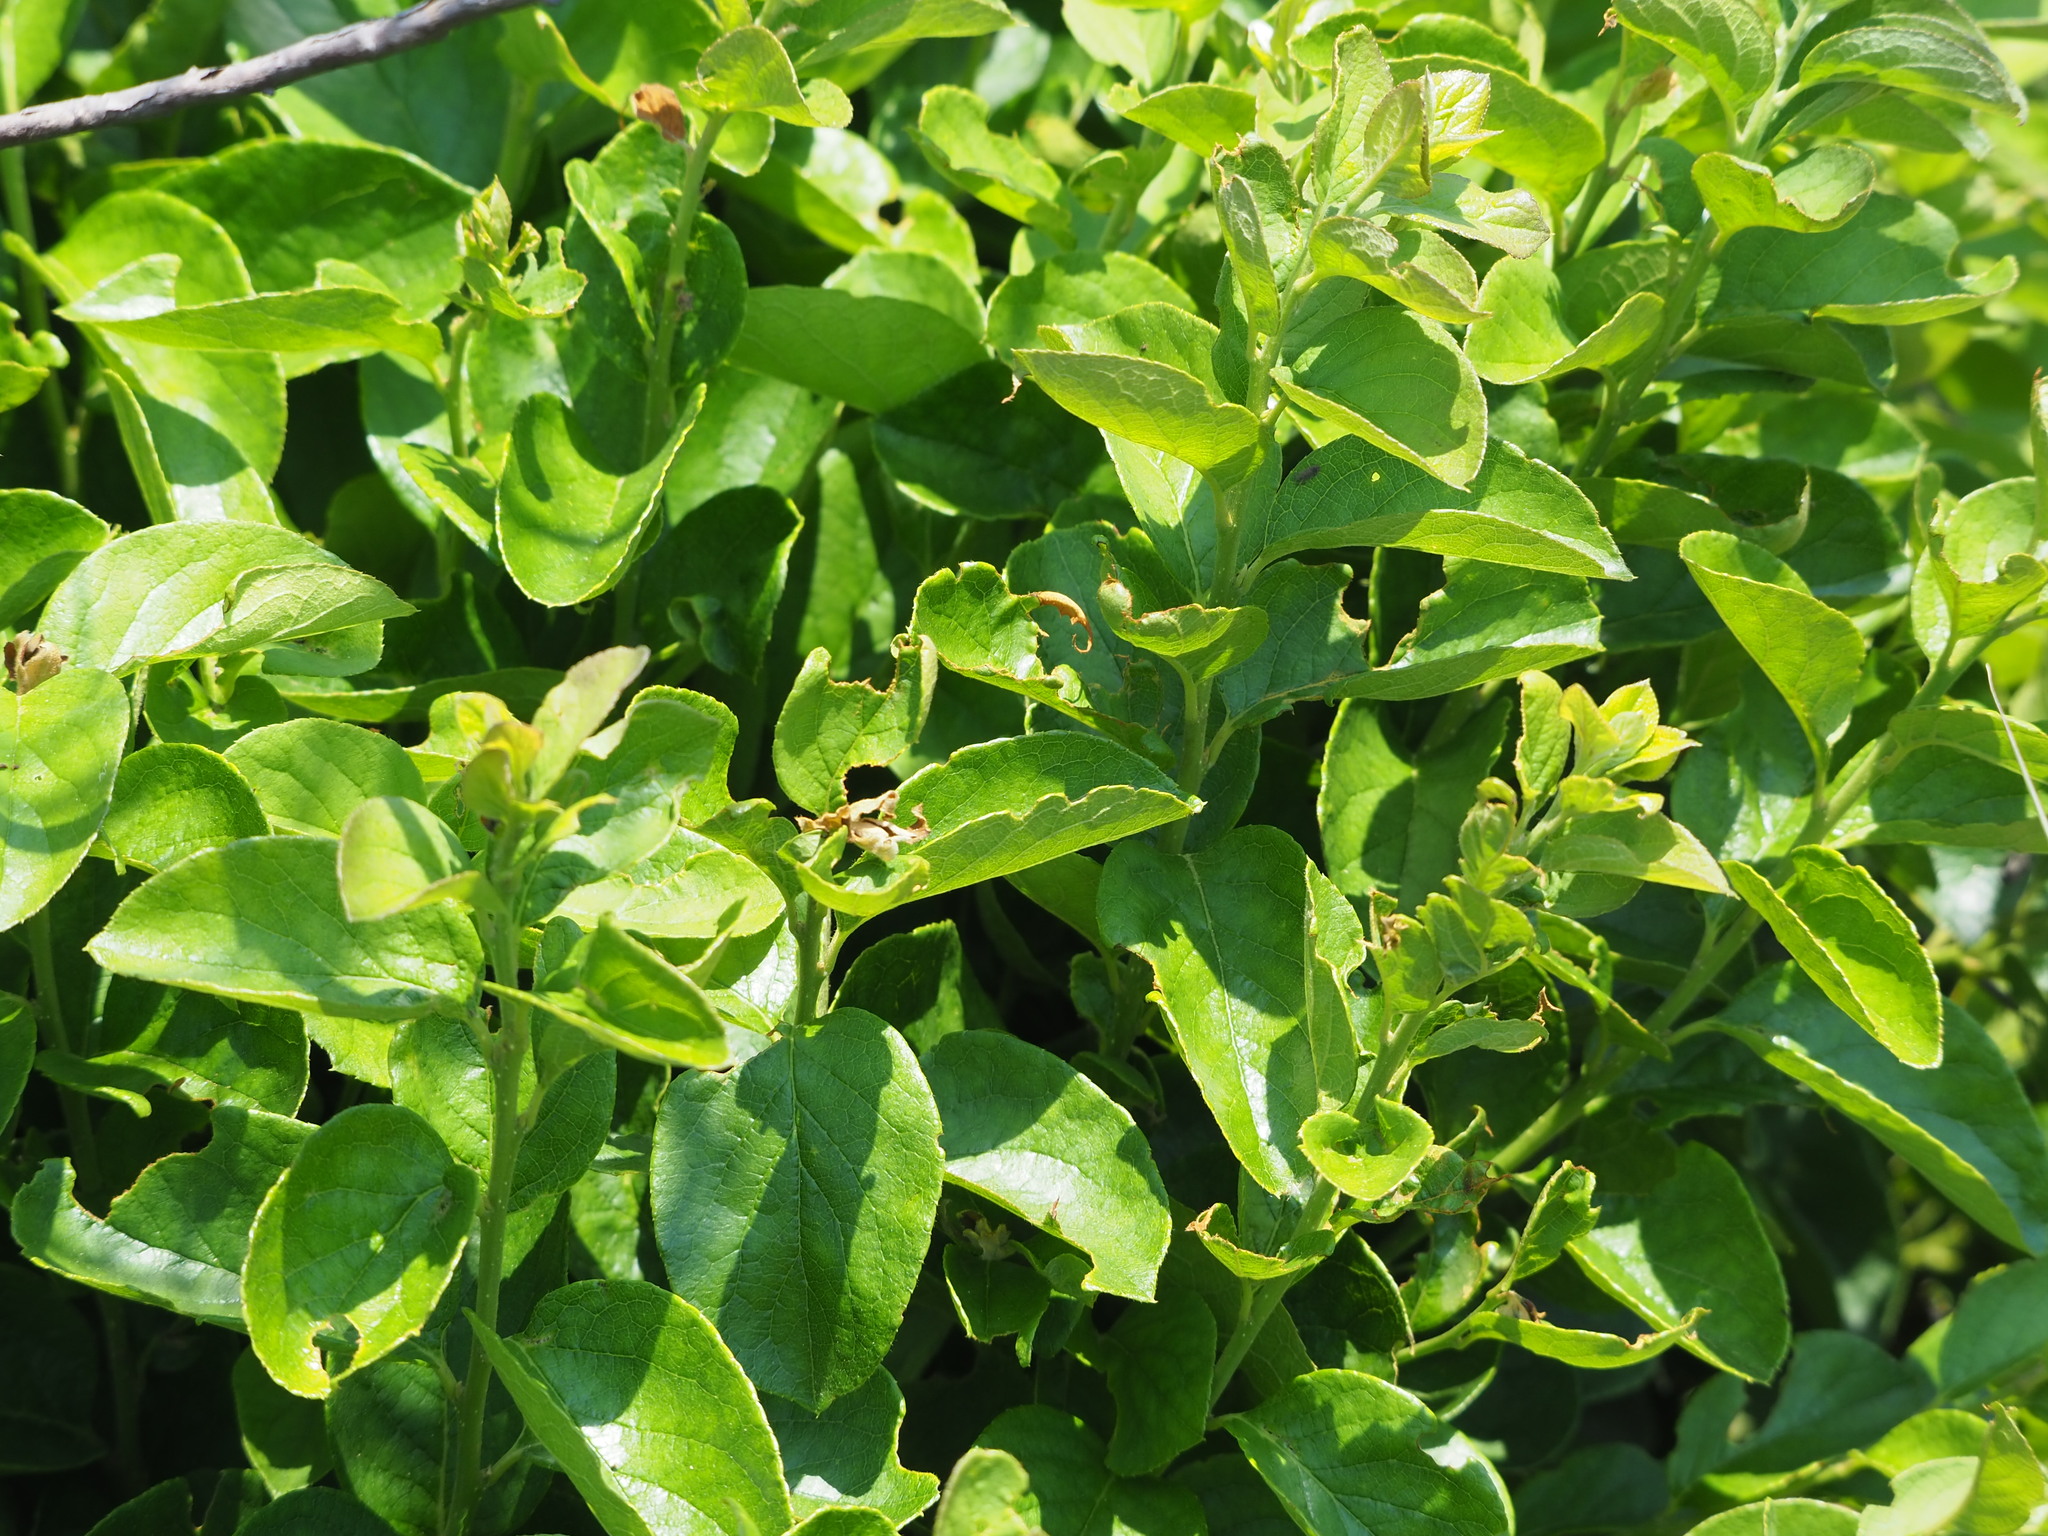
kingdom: Plantae
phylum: Tracheophyta
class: Magnoliopsida
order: Ericales
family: Symplocaceae
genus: Symplocos
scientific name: Symplocos paniculata
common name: Sapphire-berry
